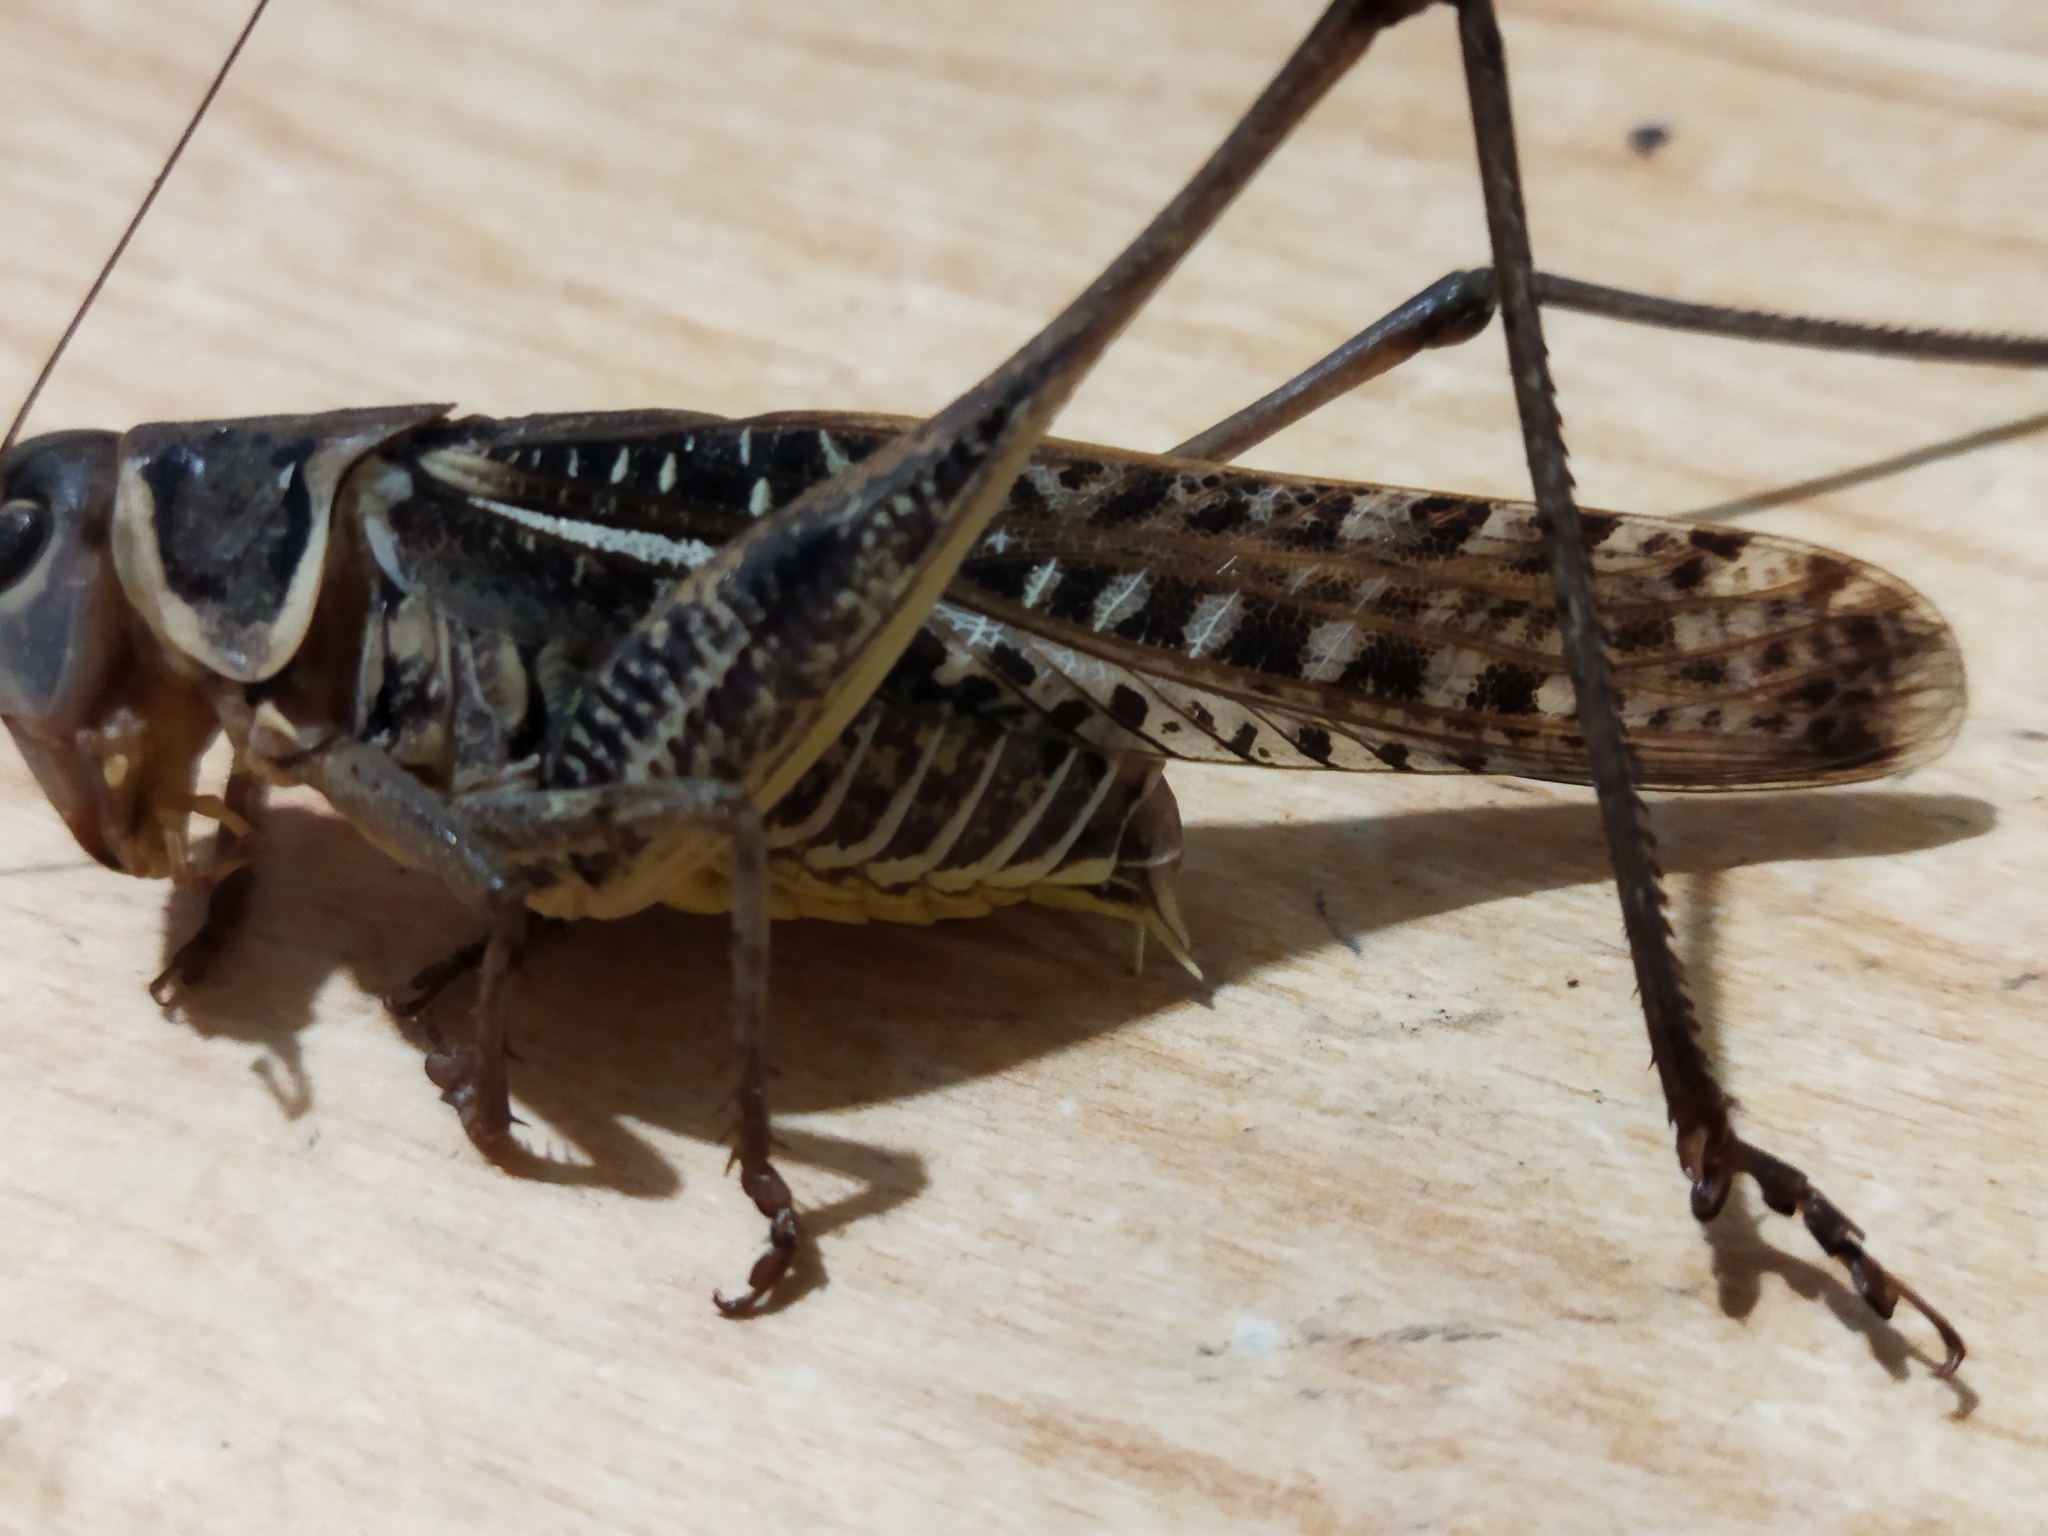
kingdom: Animalia
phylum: Arthropoda
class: Insecta
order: Orthoptera
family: Tettigoniidae
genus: Decticus
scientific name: Decticus albifrons
